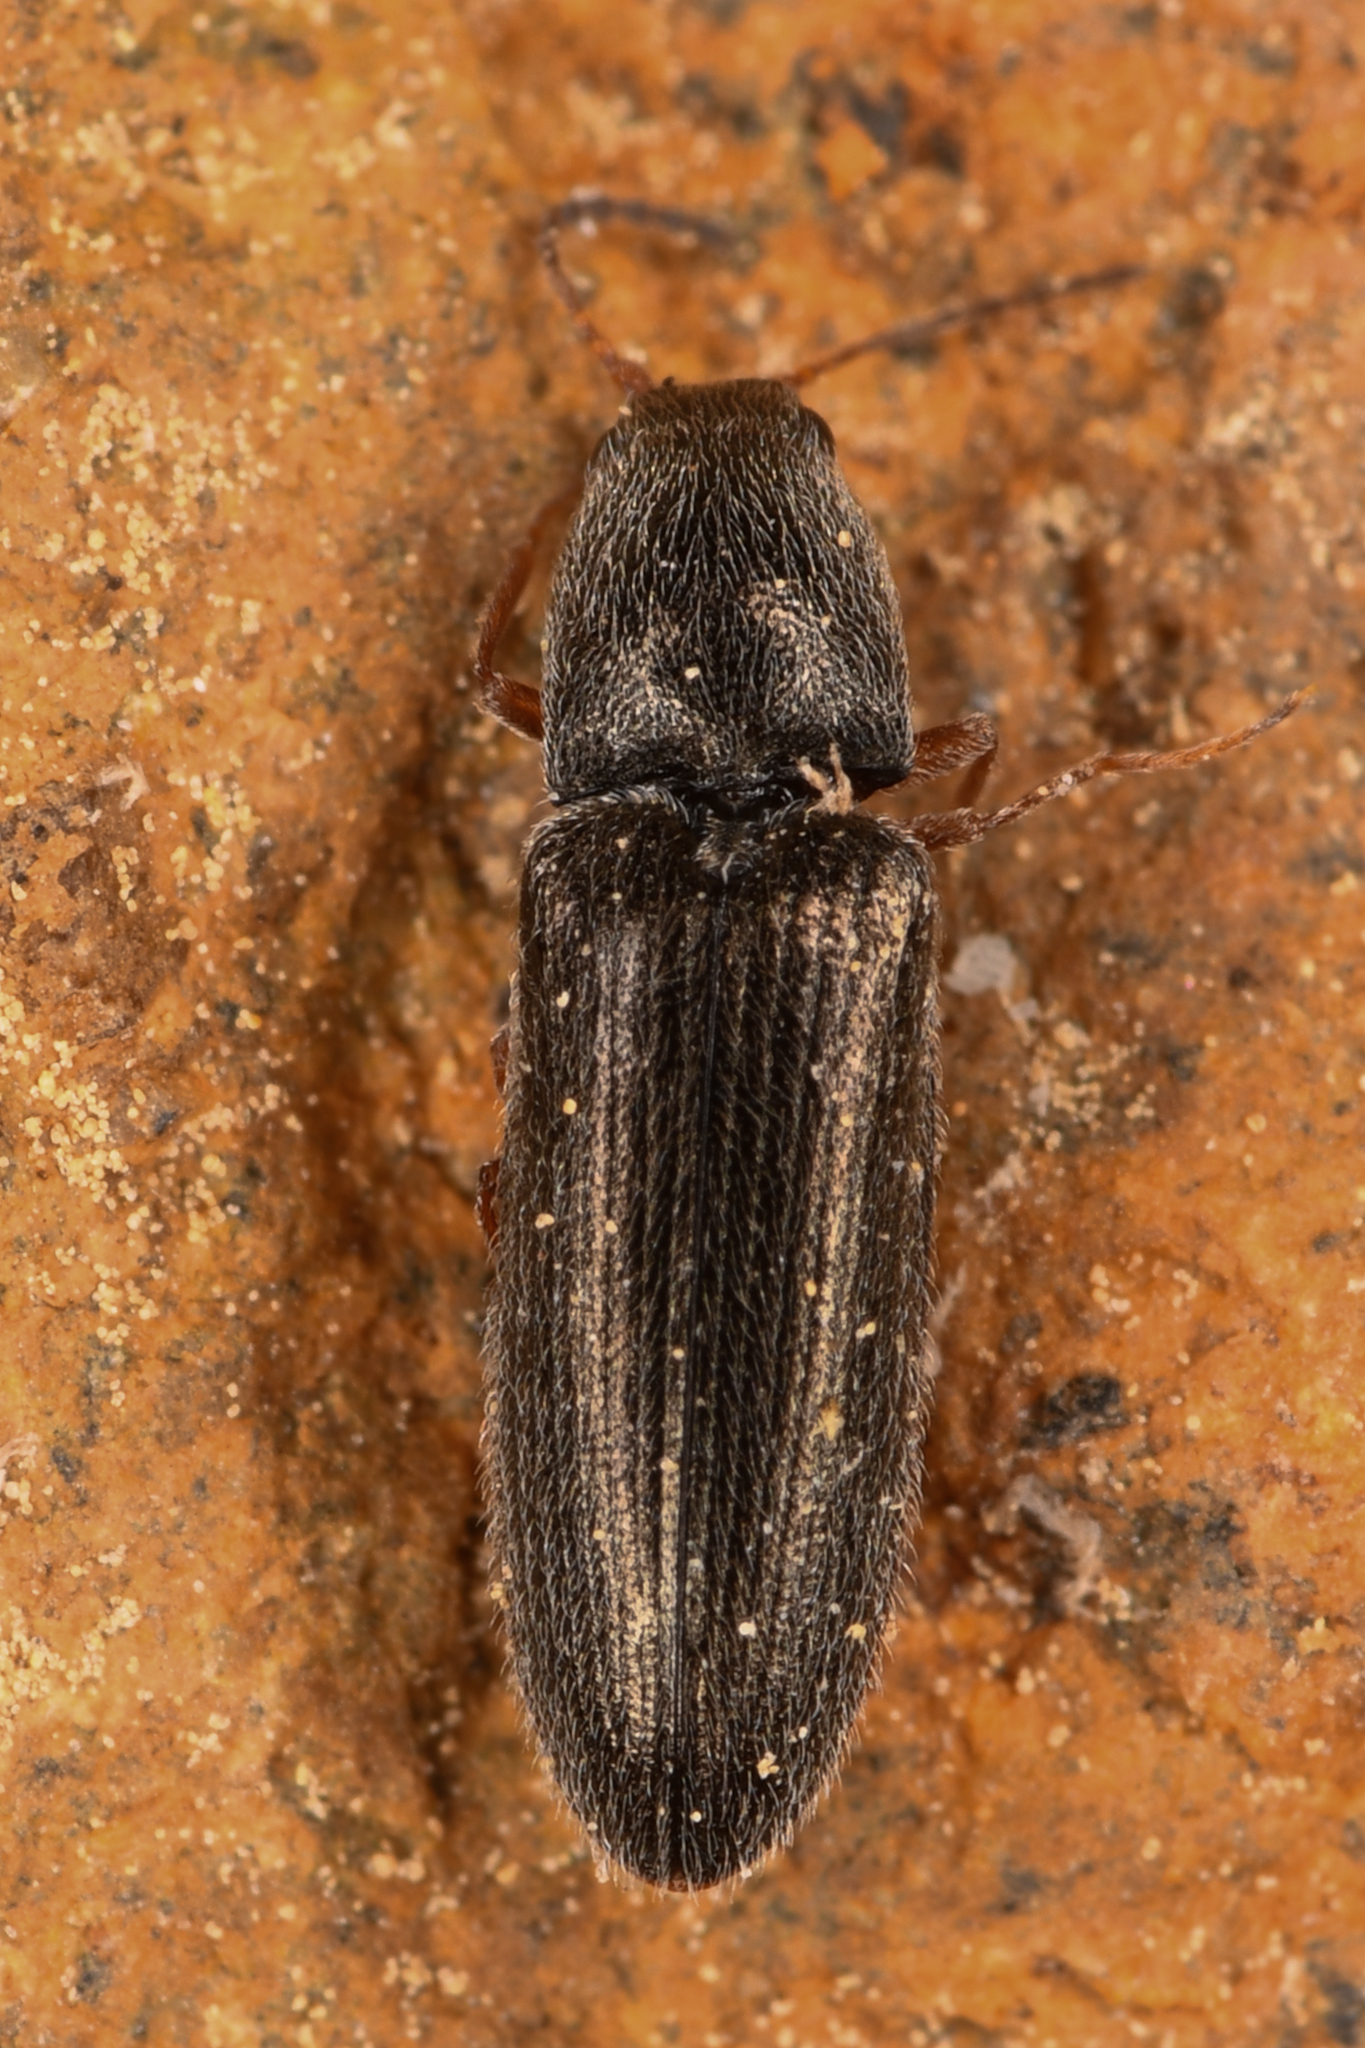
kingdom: Animalia
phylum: Arthropoda
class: Insecta
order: Coleoptera
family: Elateridae
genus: Limonius
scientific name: Limonius aeger
